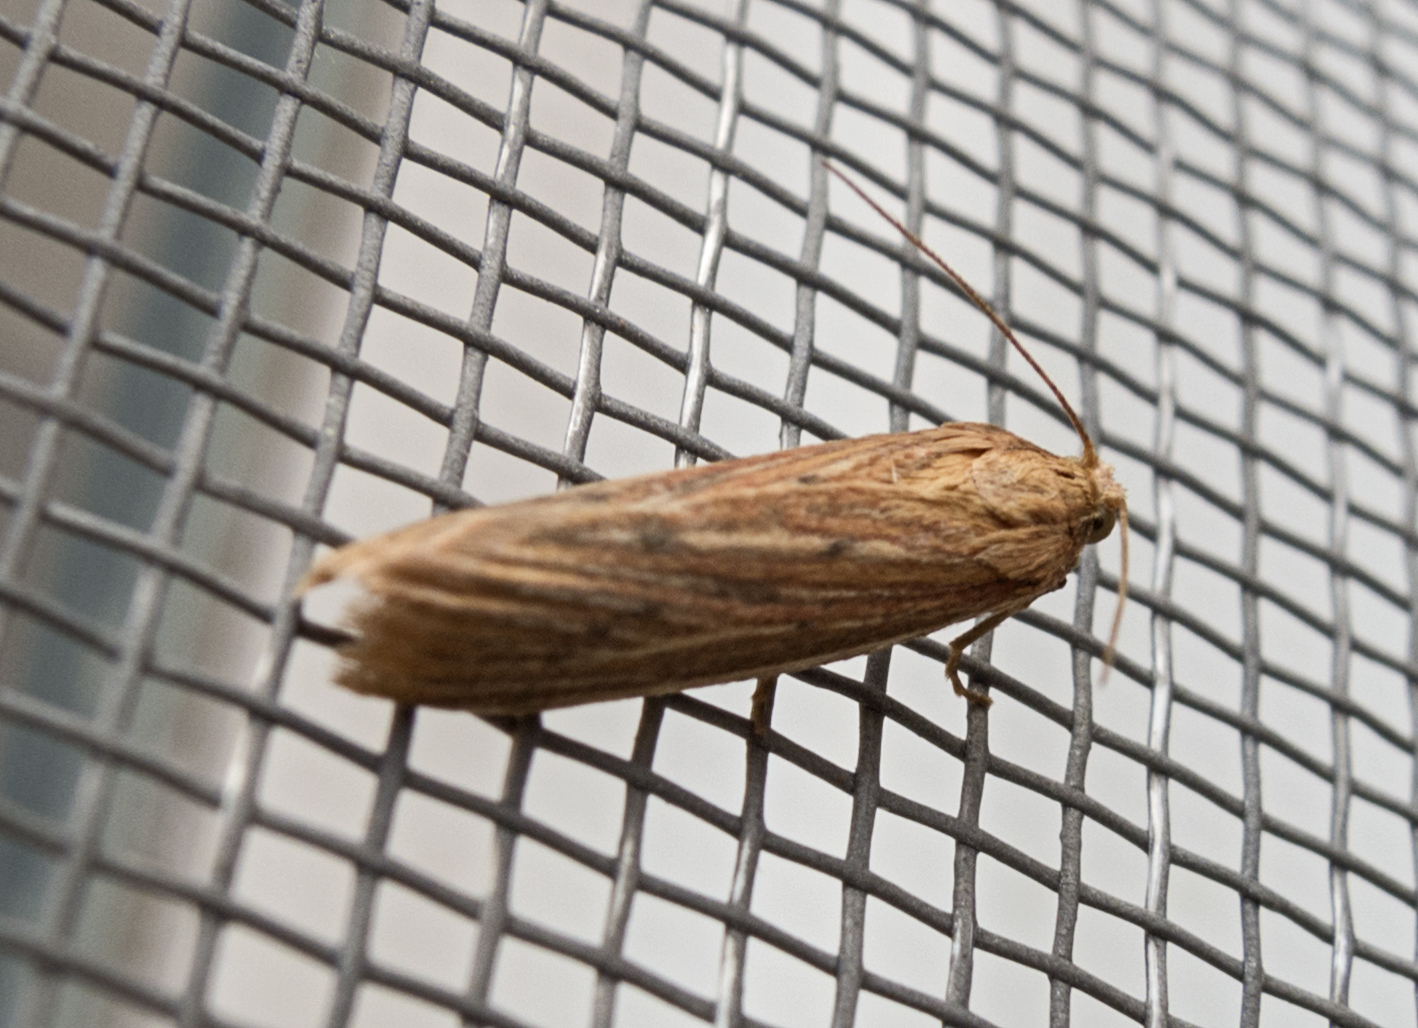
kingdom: Animalia
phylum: Arthropoda
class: Insecta
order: Lepidoptera
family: Pyralidae
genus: Ematheudes
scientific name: Ematheudes punctellus
